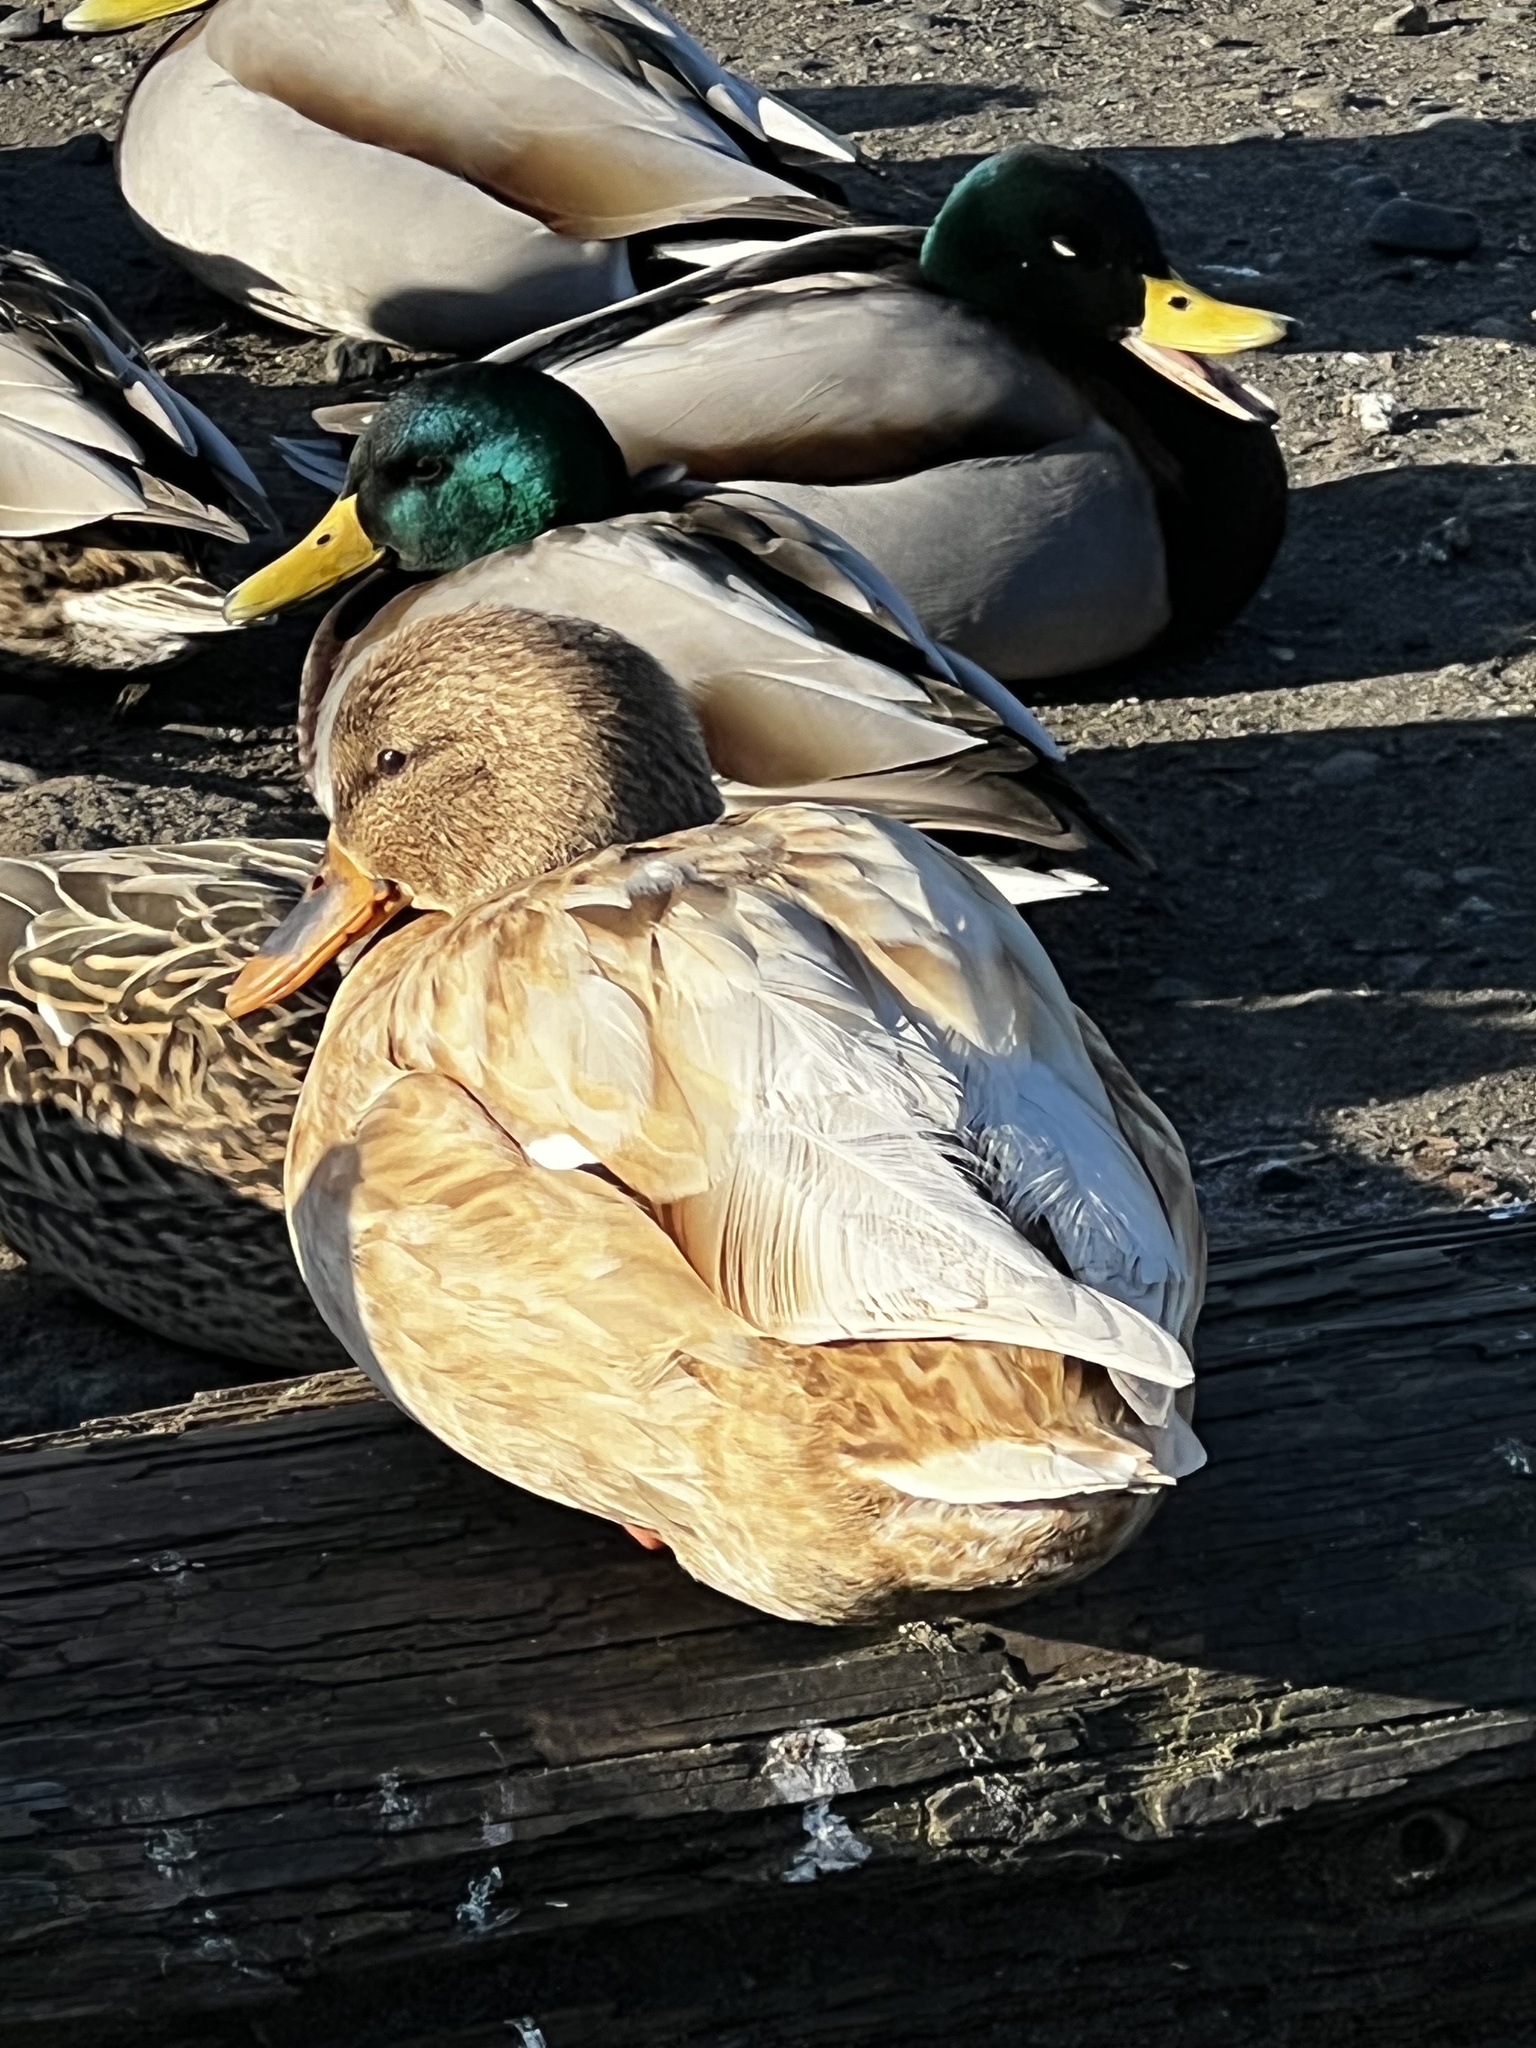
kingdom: Animalia
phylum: Chordata
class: Aves
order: Anseriformes
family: Anatidae
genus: Anas
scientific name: Anas platyrhynchos
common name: Mallard
